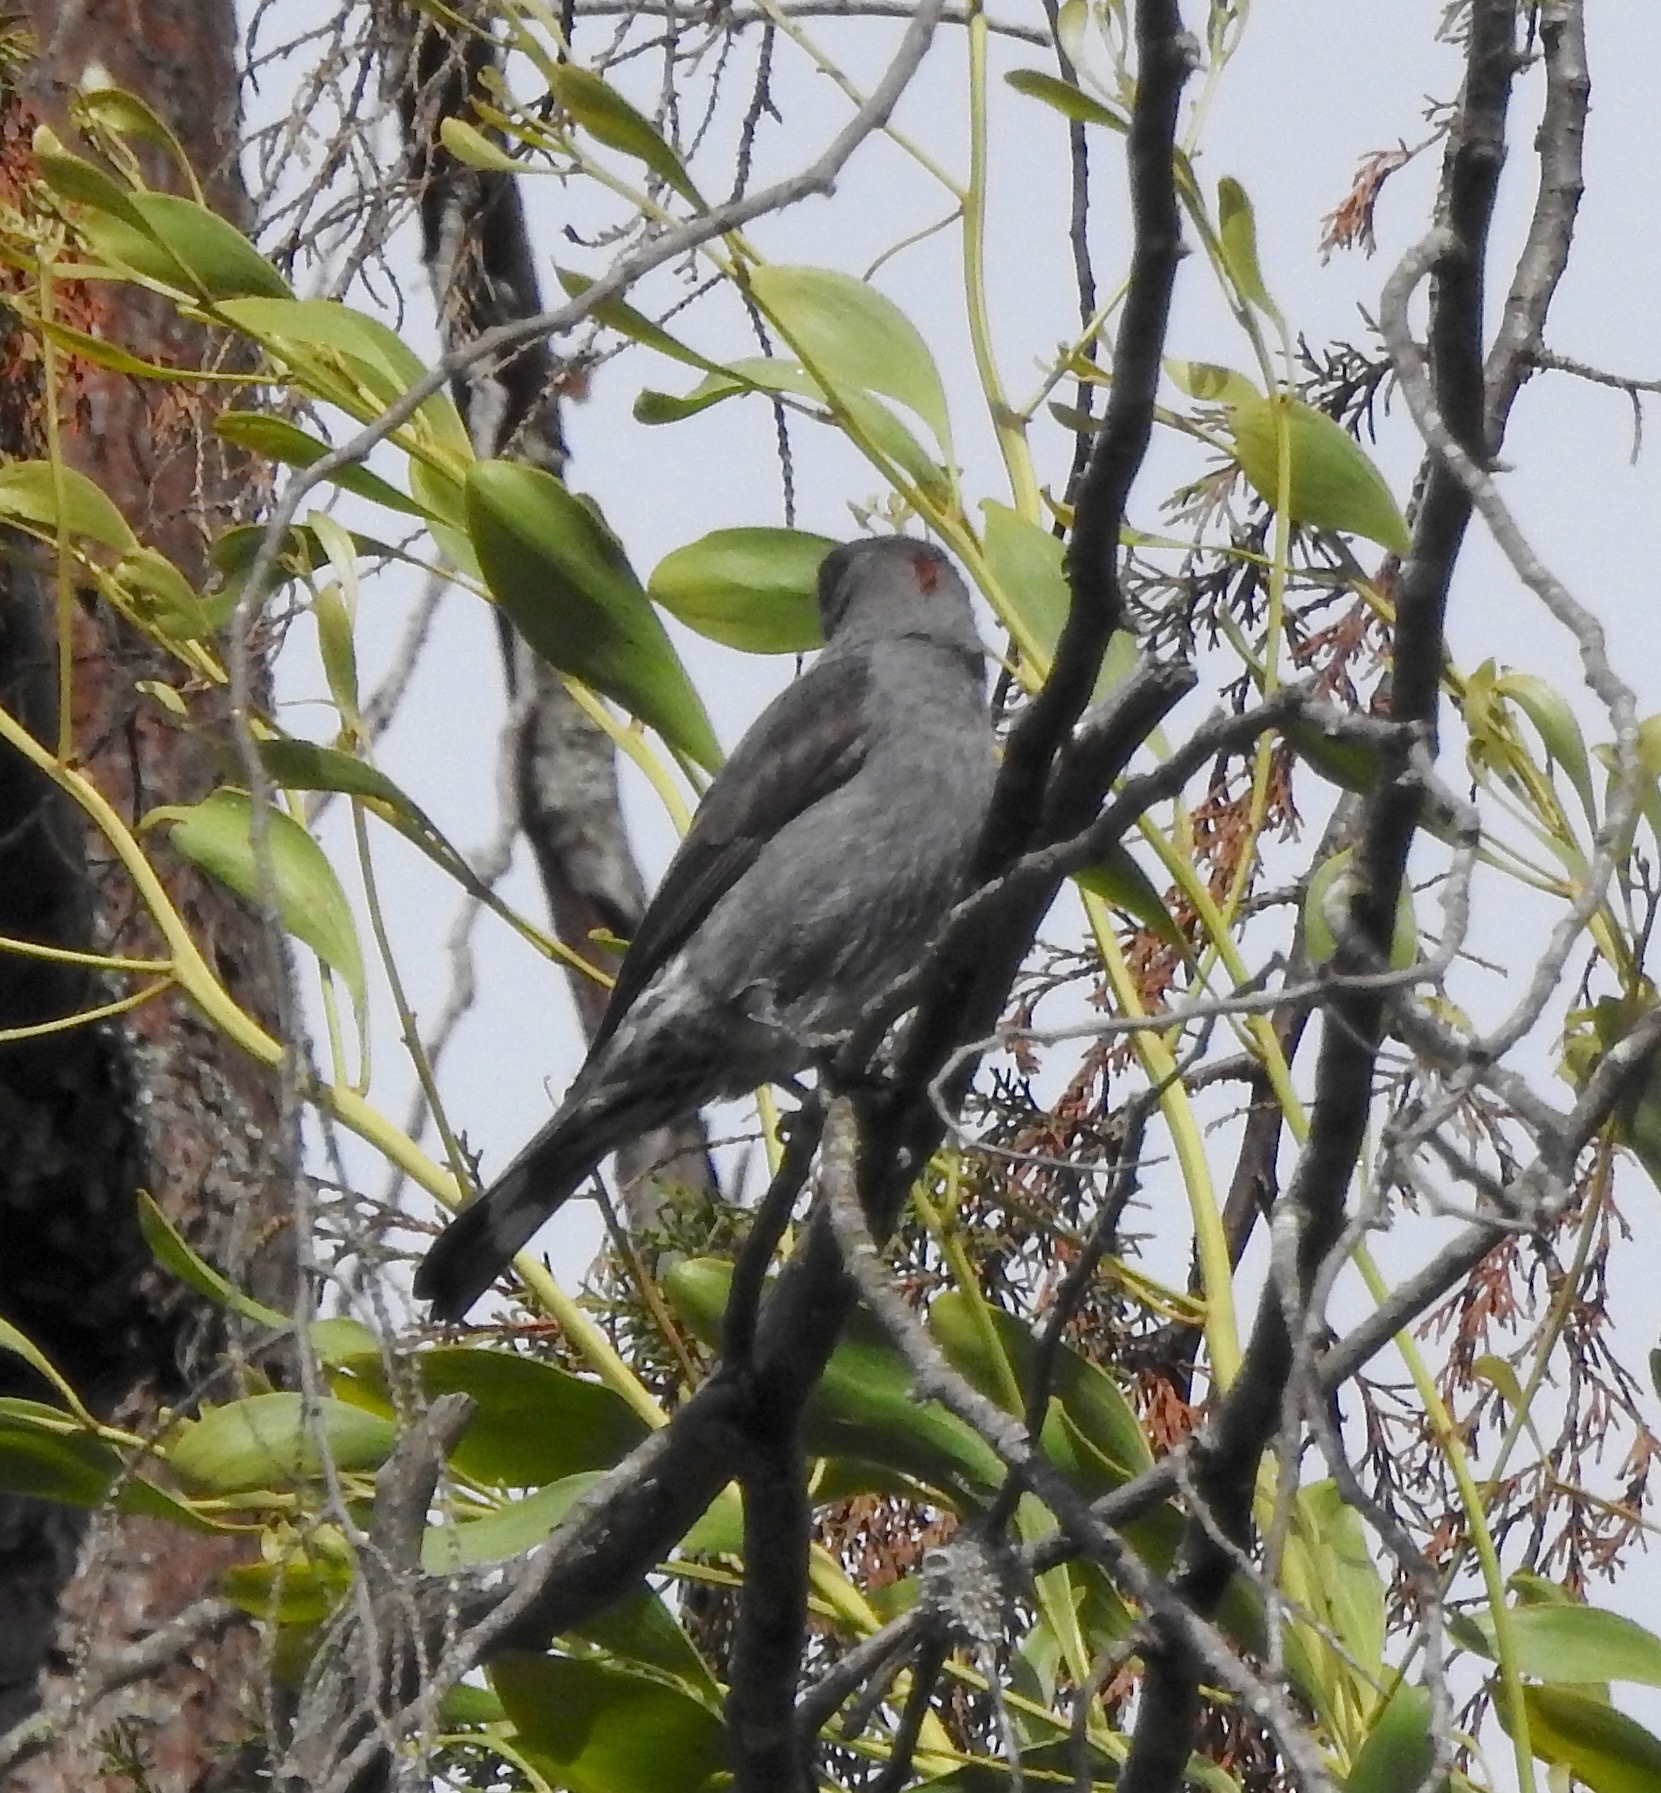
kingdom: Animalia
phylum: Chordata
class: Aves
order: Passeriformes
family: Cotingidae
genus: Ampelion
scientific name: Ampelion rubrocristatus
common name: Red-crested cotinga
